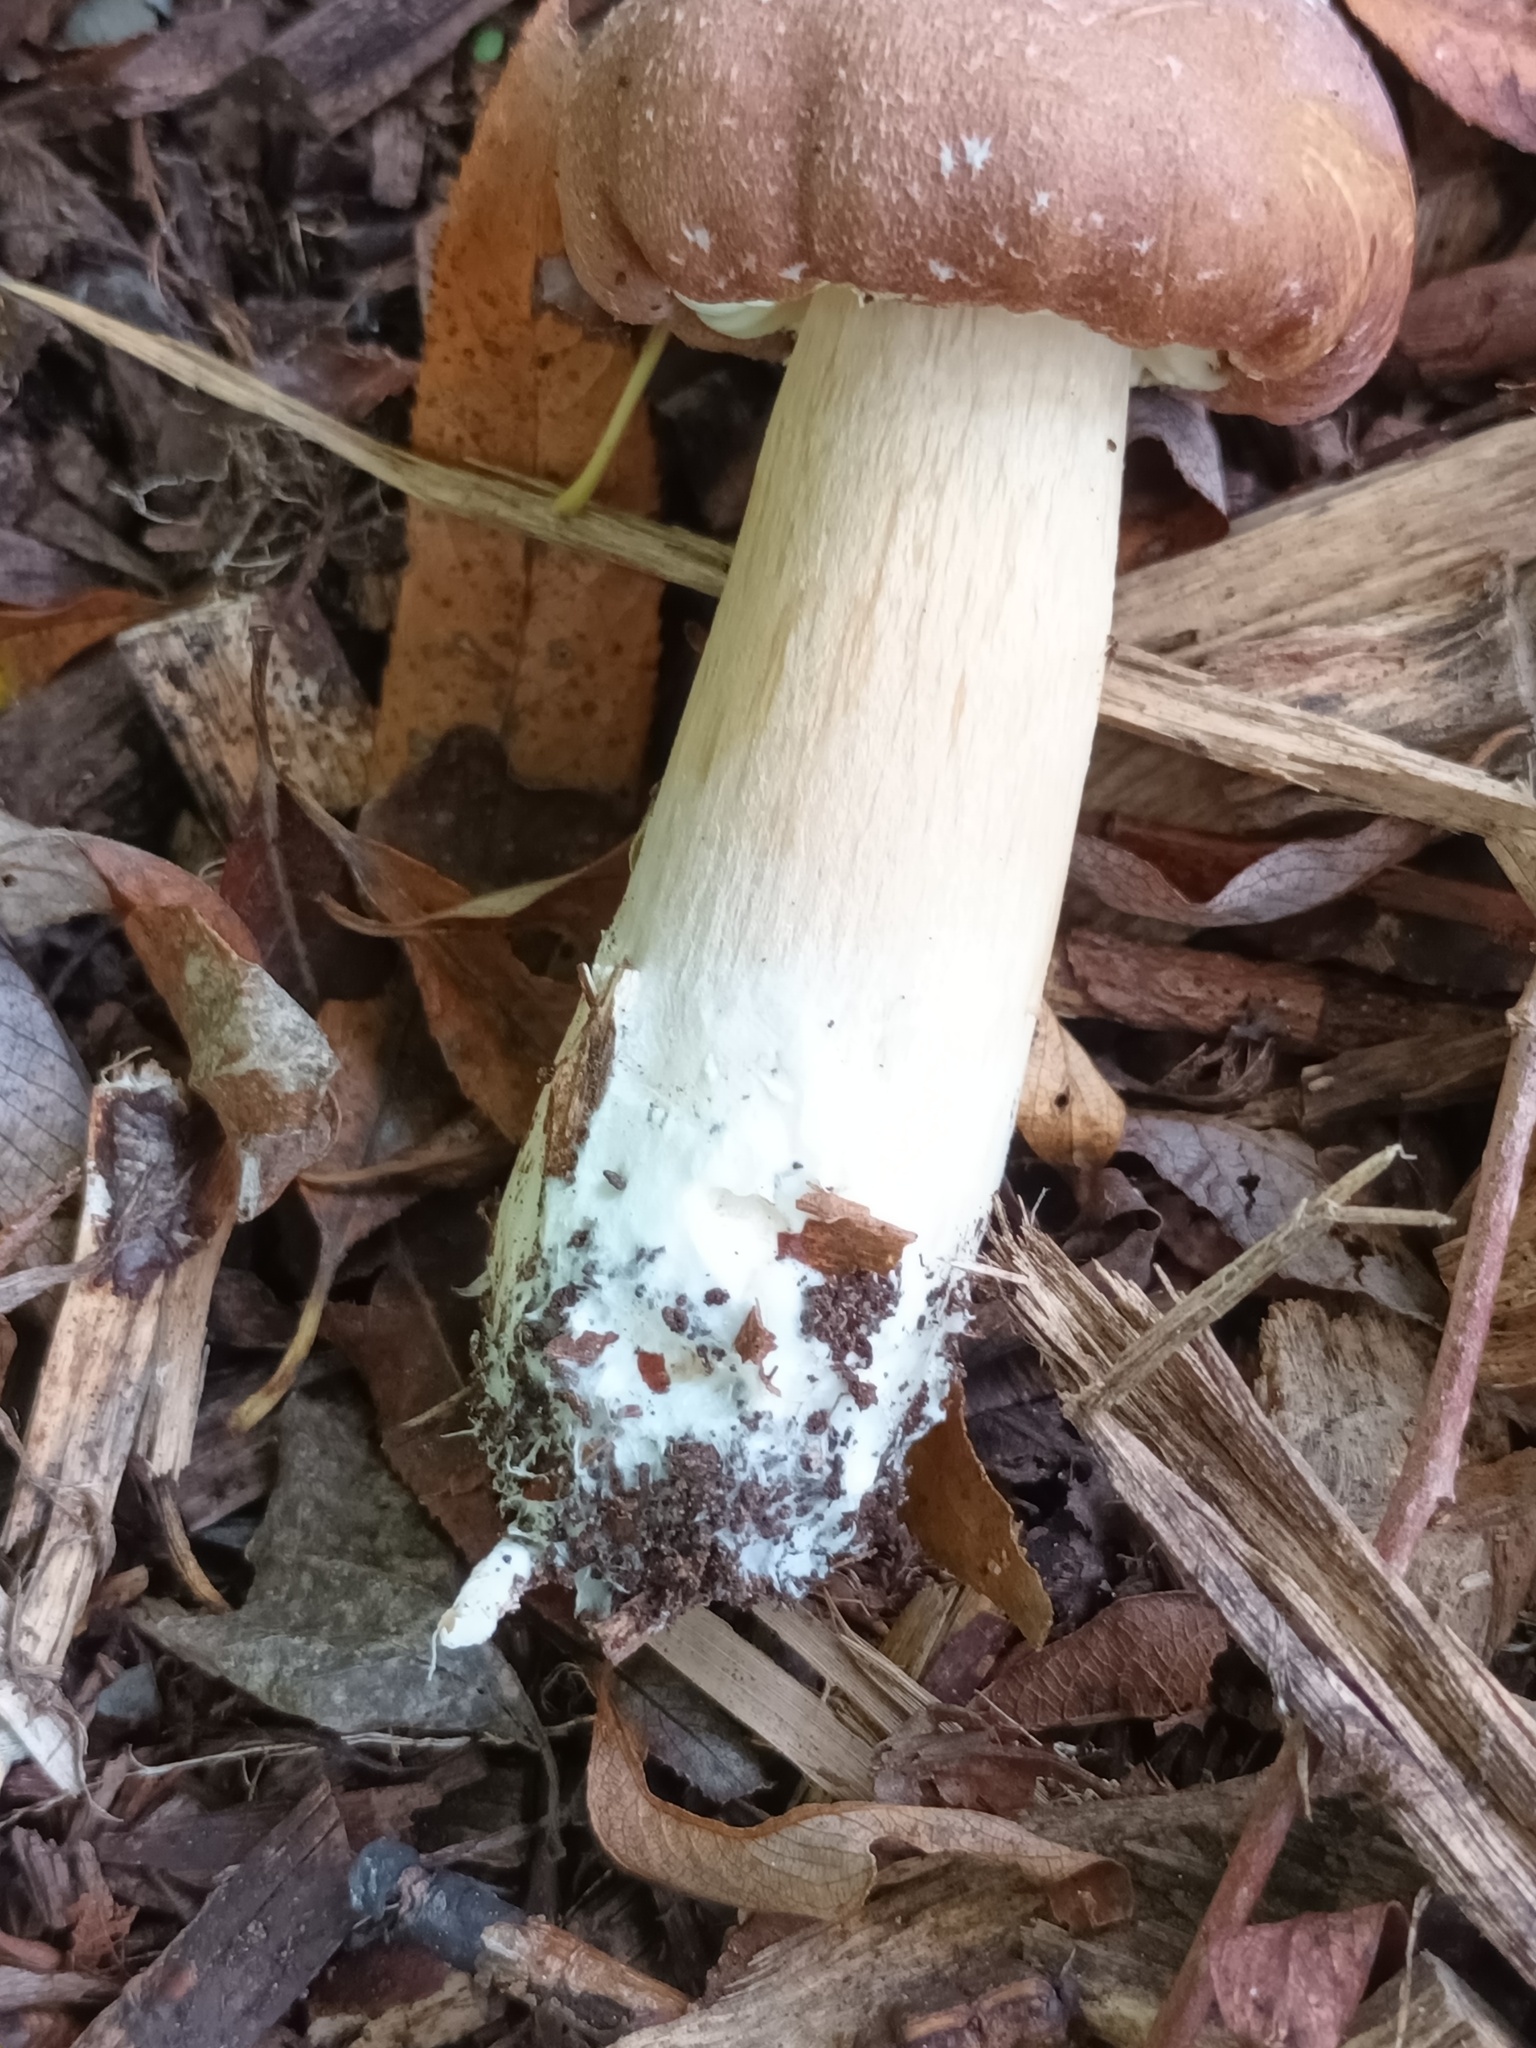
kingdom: Fungi
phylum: Basidiomycota
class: Agaricomycetes
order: Agaricales
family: Strophariaceae
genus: Stropharia
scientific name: Stropharia rugosoannulata
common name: Wine roundhead
